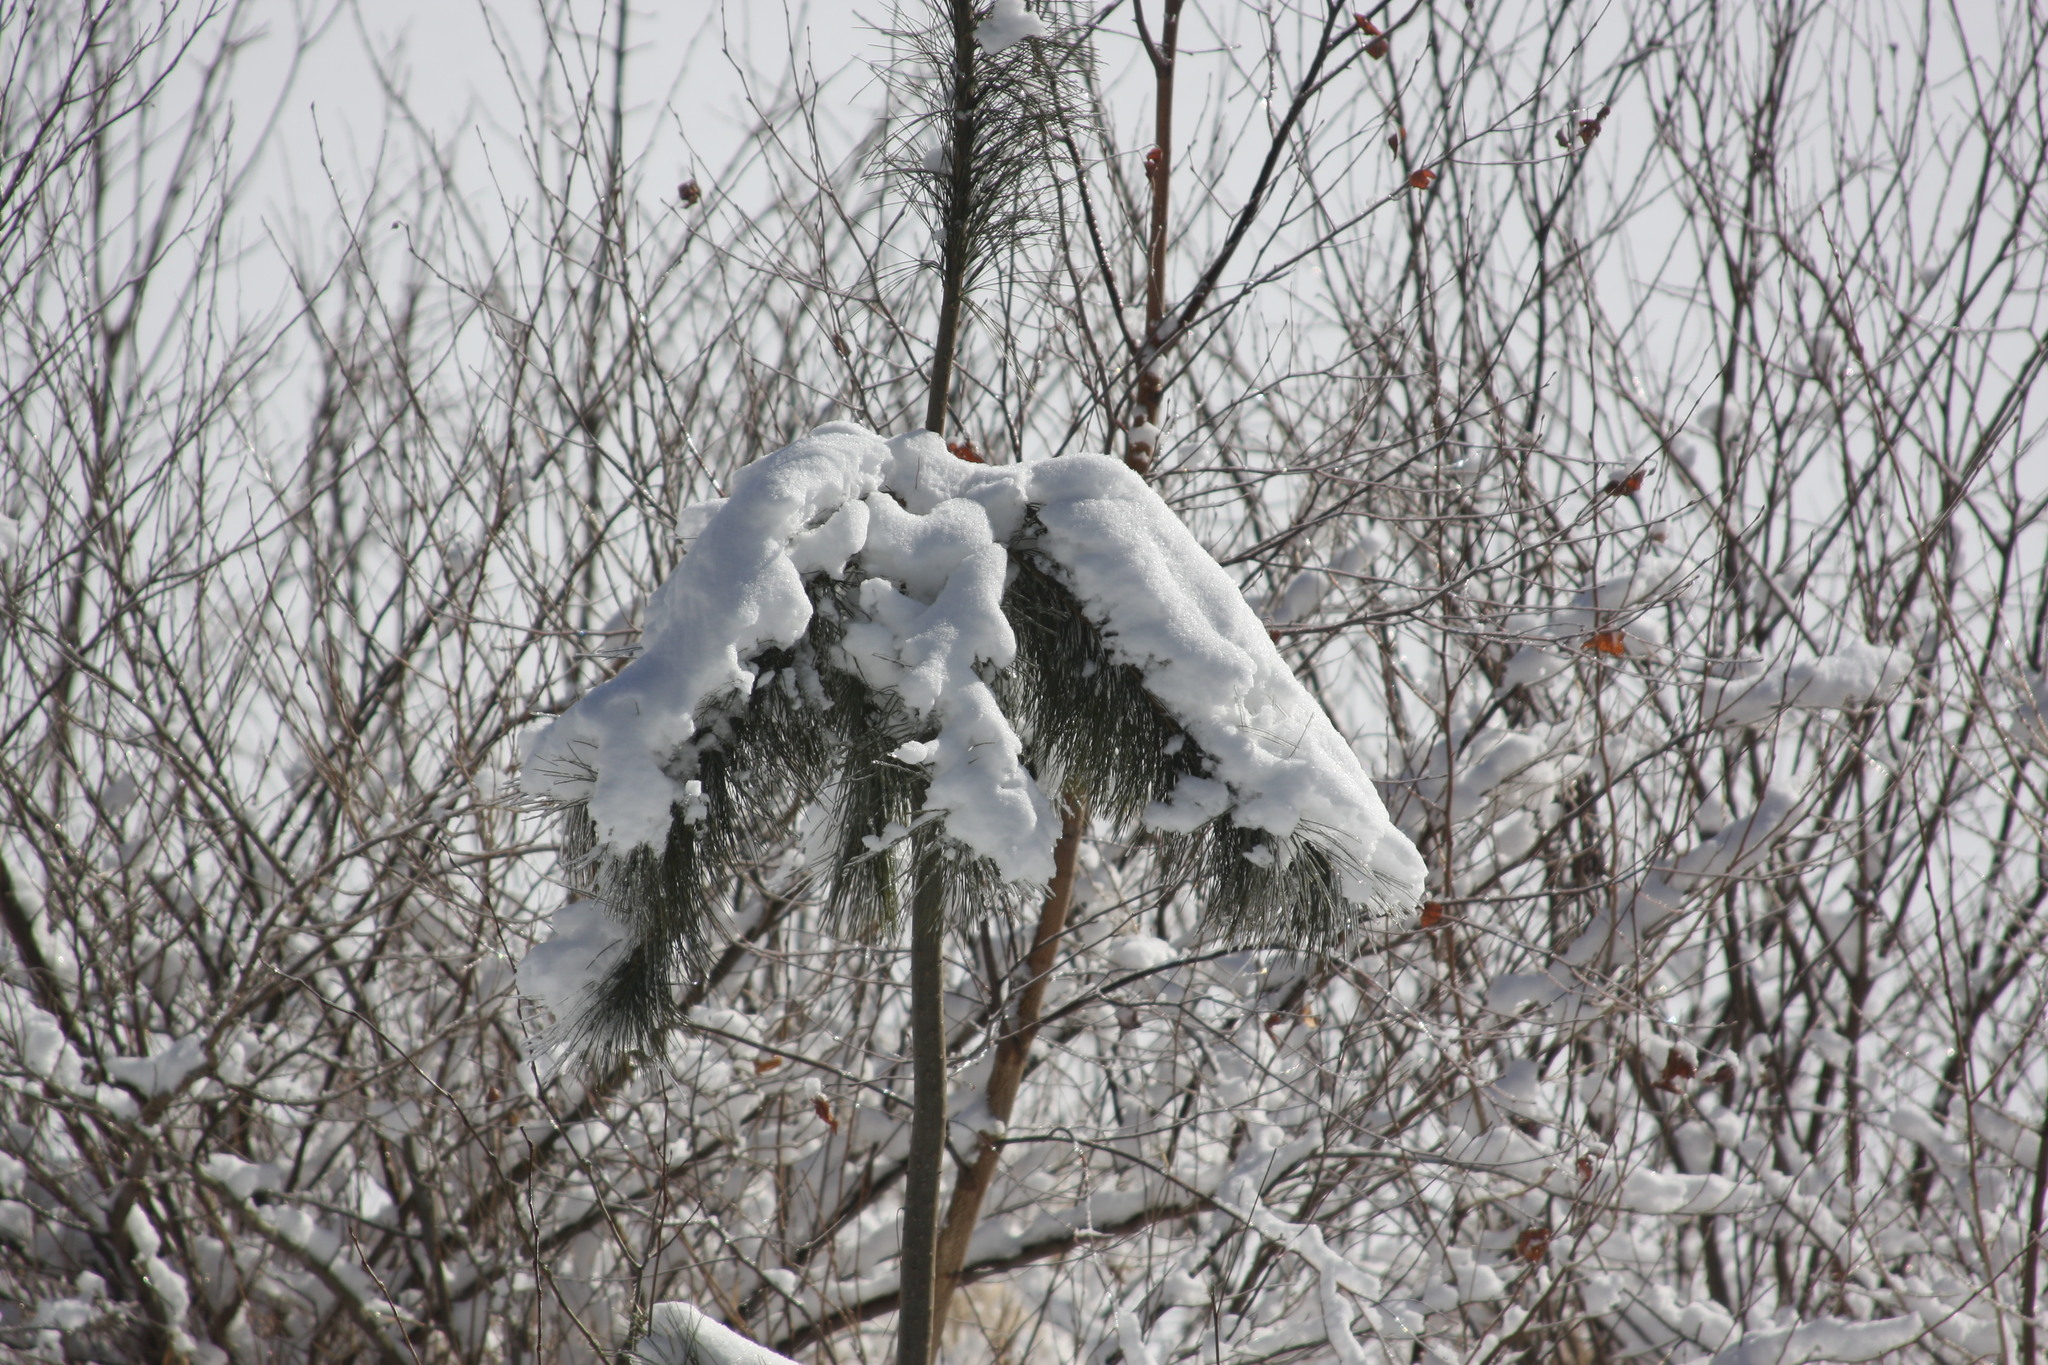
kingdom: Plantae
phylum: Tracheophyta
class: Pinopsida
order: Pinales
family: Pinaceae
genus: Pinus
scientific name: Pinus strobus
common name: Weymouth pine
